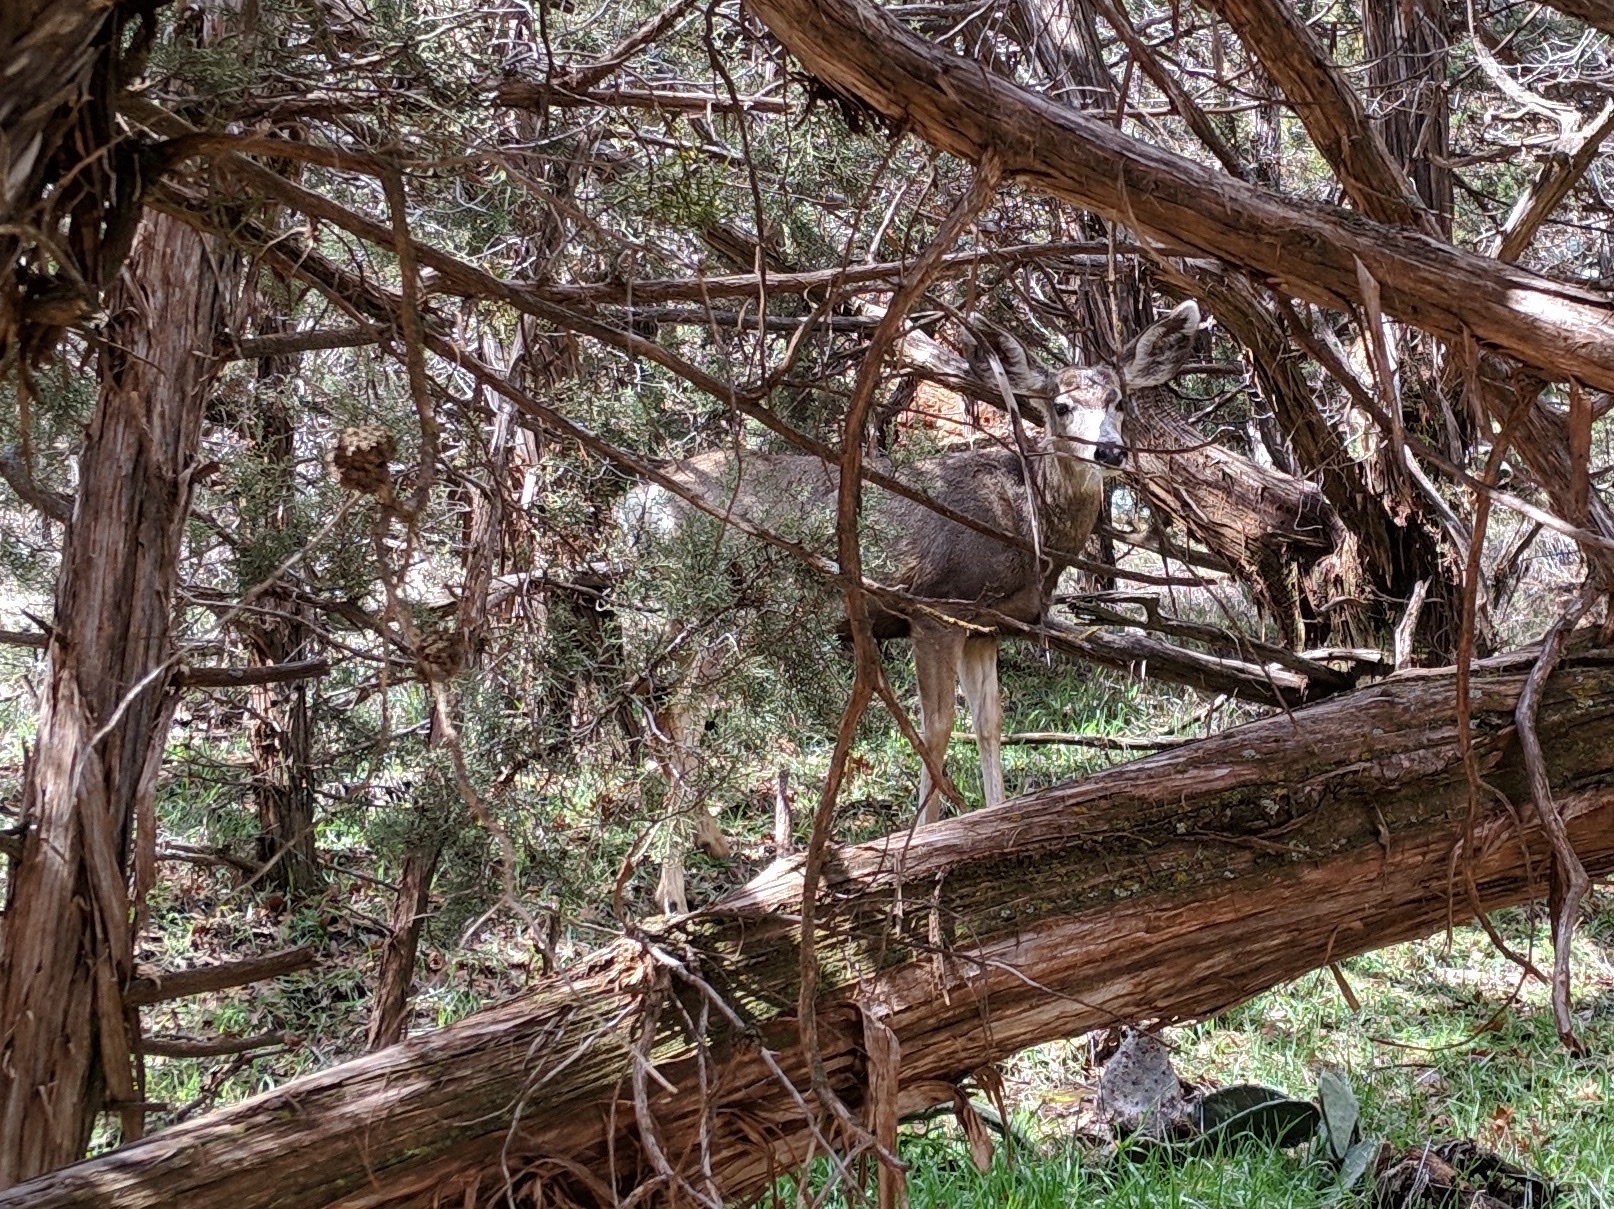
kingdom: Animalia
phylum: Chordata
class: Mammalia
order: Artiodactyla
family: Cervidae
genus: Odocoileus
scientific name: Odocoileus hemionus
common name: Mule deer
